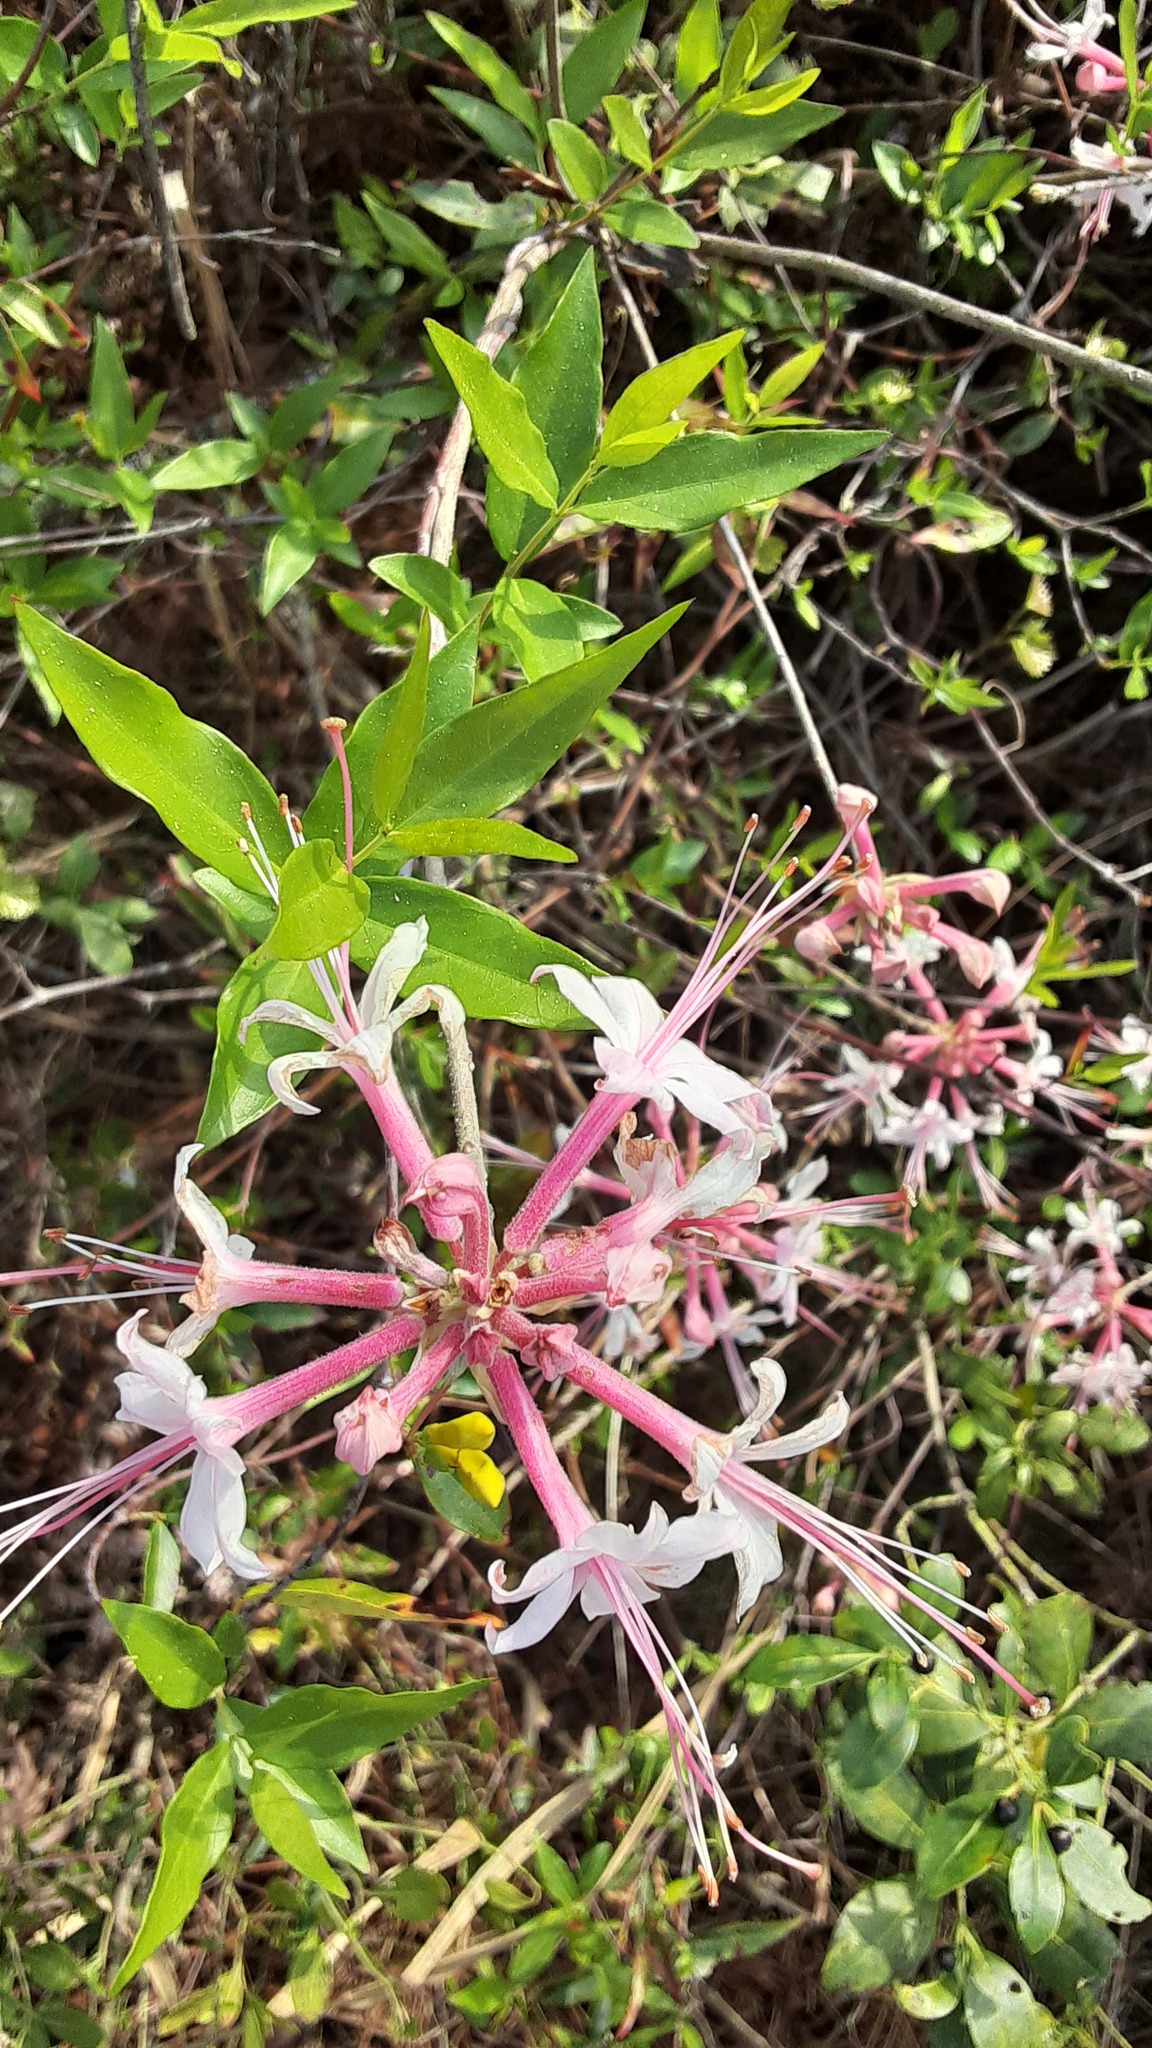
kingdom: Plantae
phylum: Tracheophyta
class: Magnoliopsida
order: Ericales
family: Ericaceae
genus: Rhododendron
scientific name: Rhododendron canescens
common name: Mountain azalea
